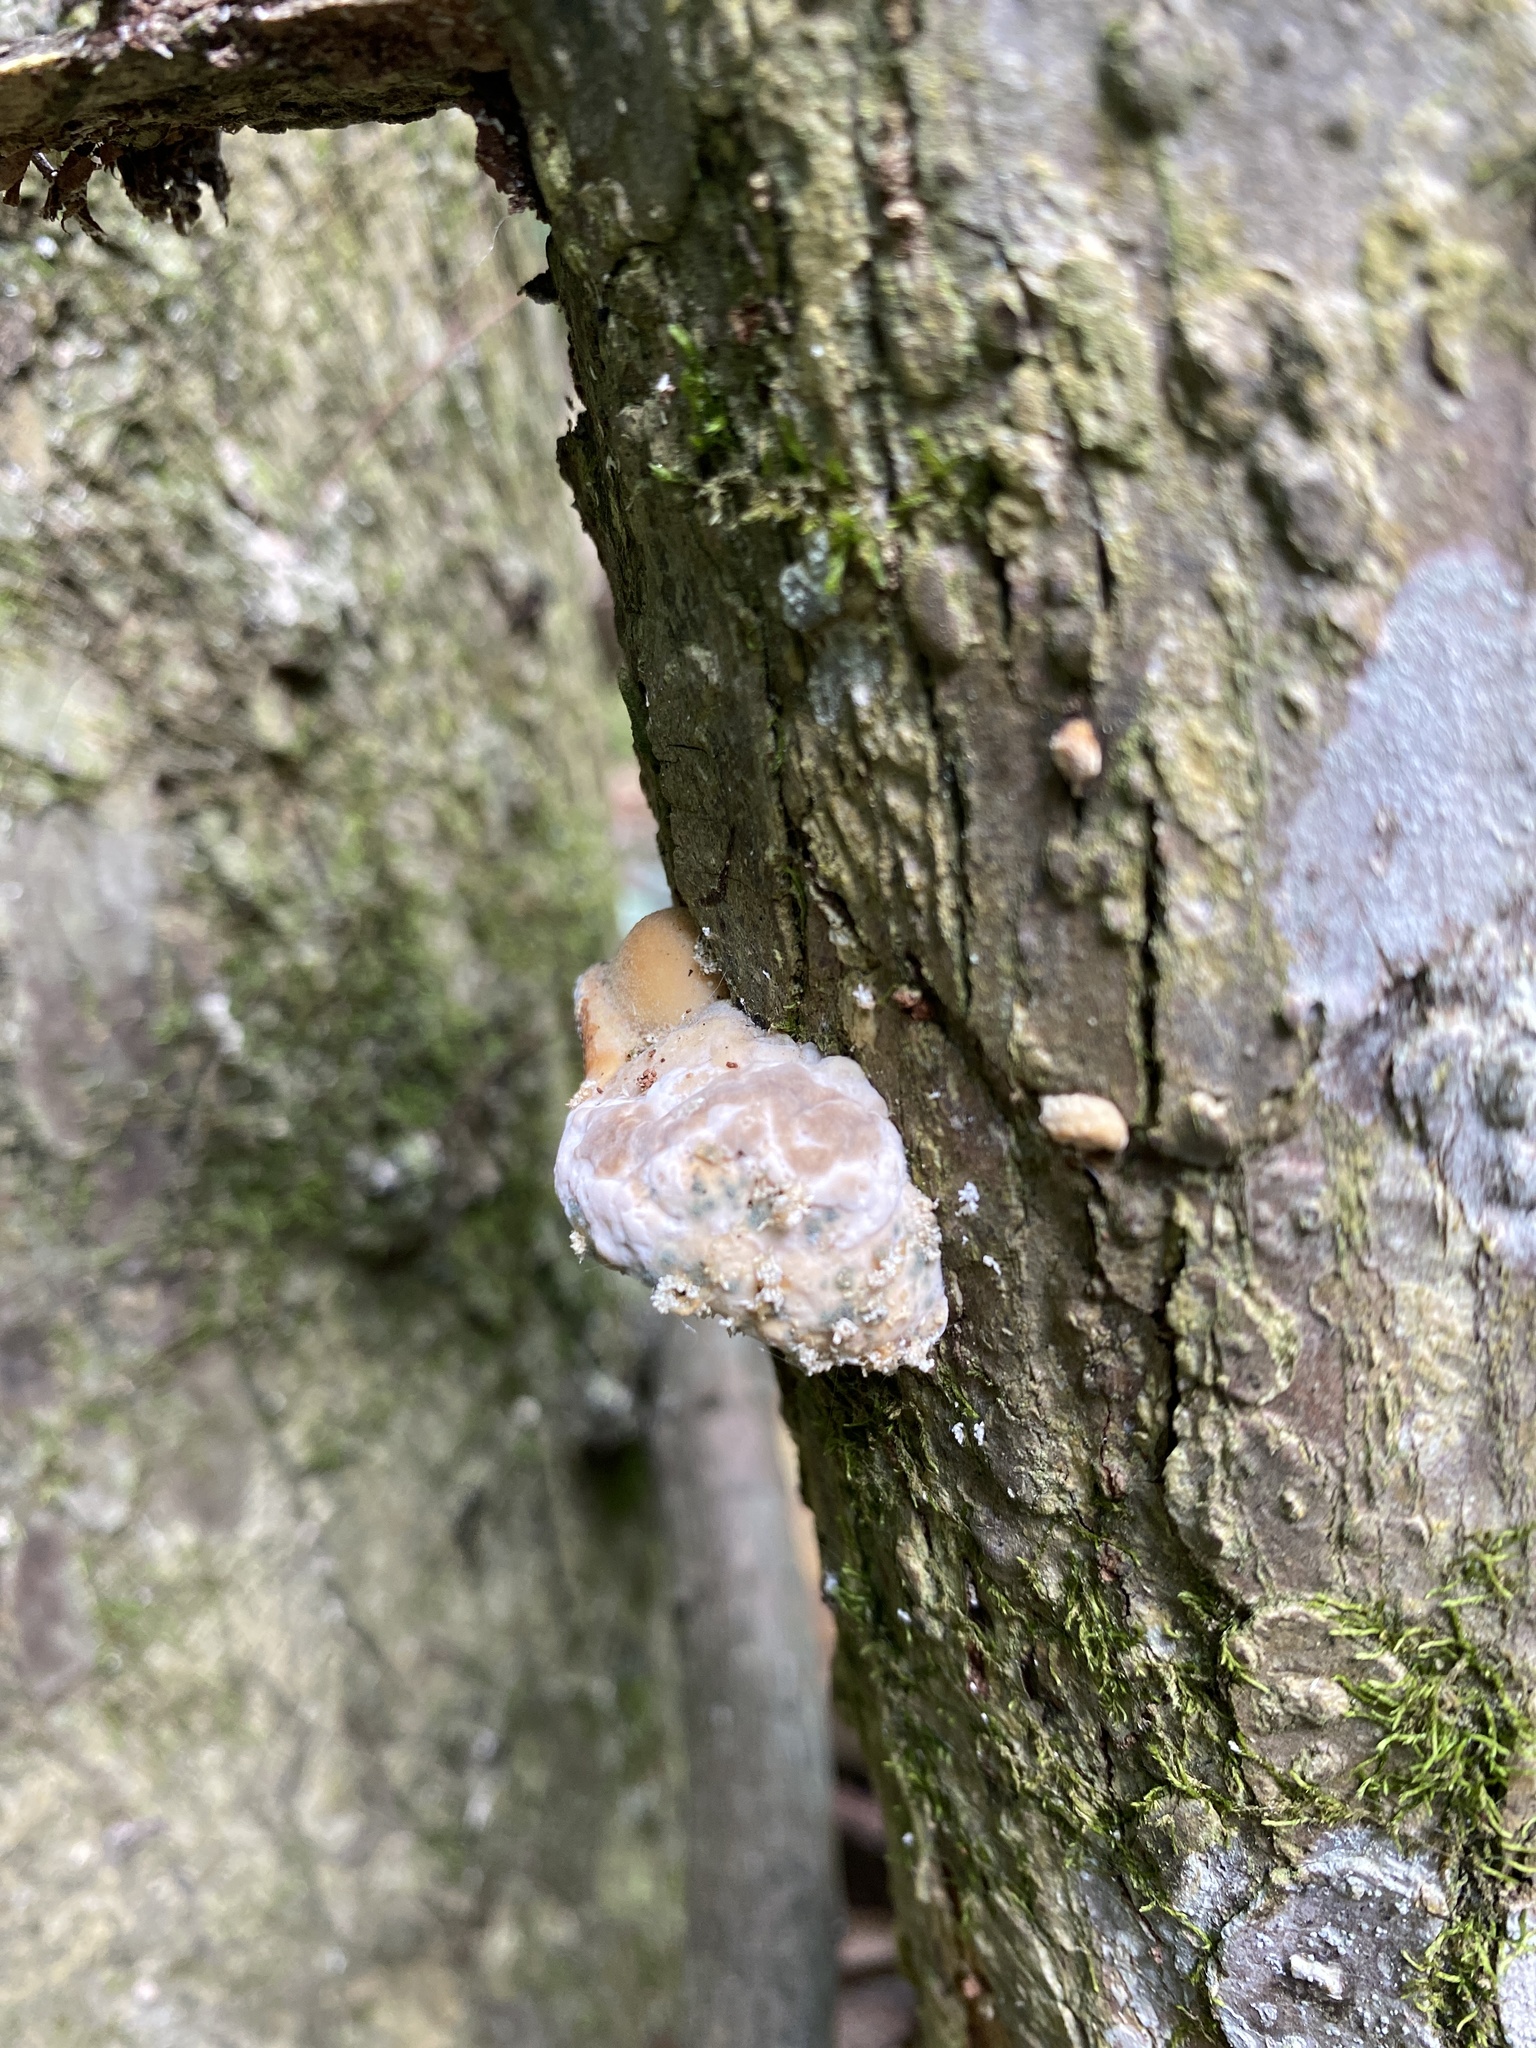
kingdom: Fungi
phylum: Basidiomycota
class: Agaricomycetes
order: Polyporales
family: Polyporaceae
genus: Trametes
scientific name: Trametes gibbosa
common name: Lumpy bracket
